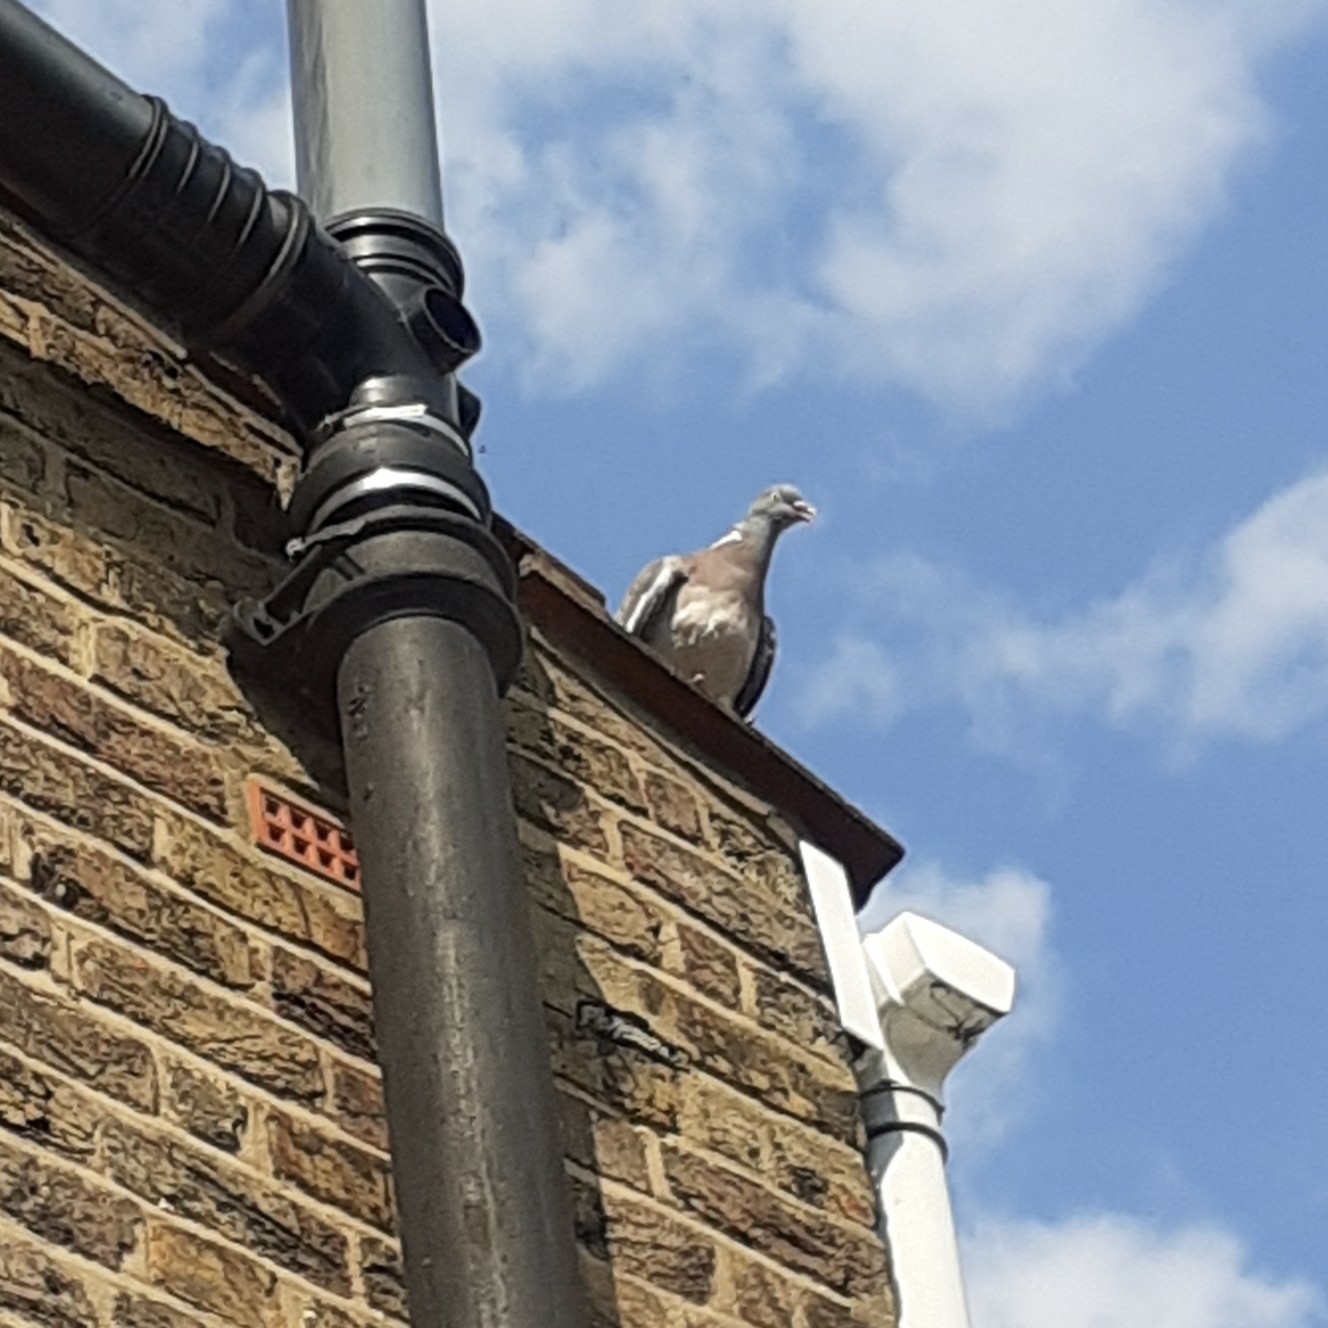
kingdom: Animalia
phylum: Chordata
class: Aves
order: Columbiformes
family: Columbidae
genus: Columba
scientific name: Columba palumbus
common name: Common wood pigeon
